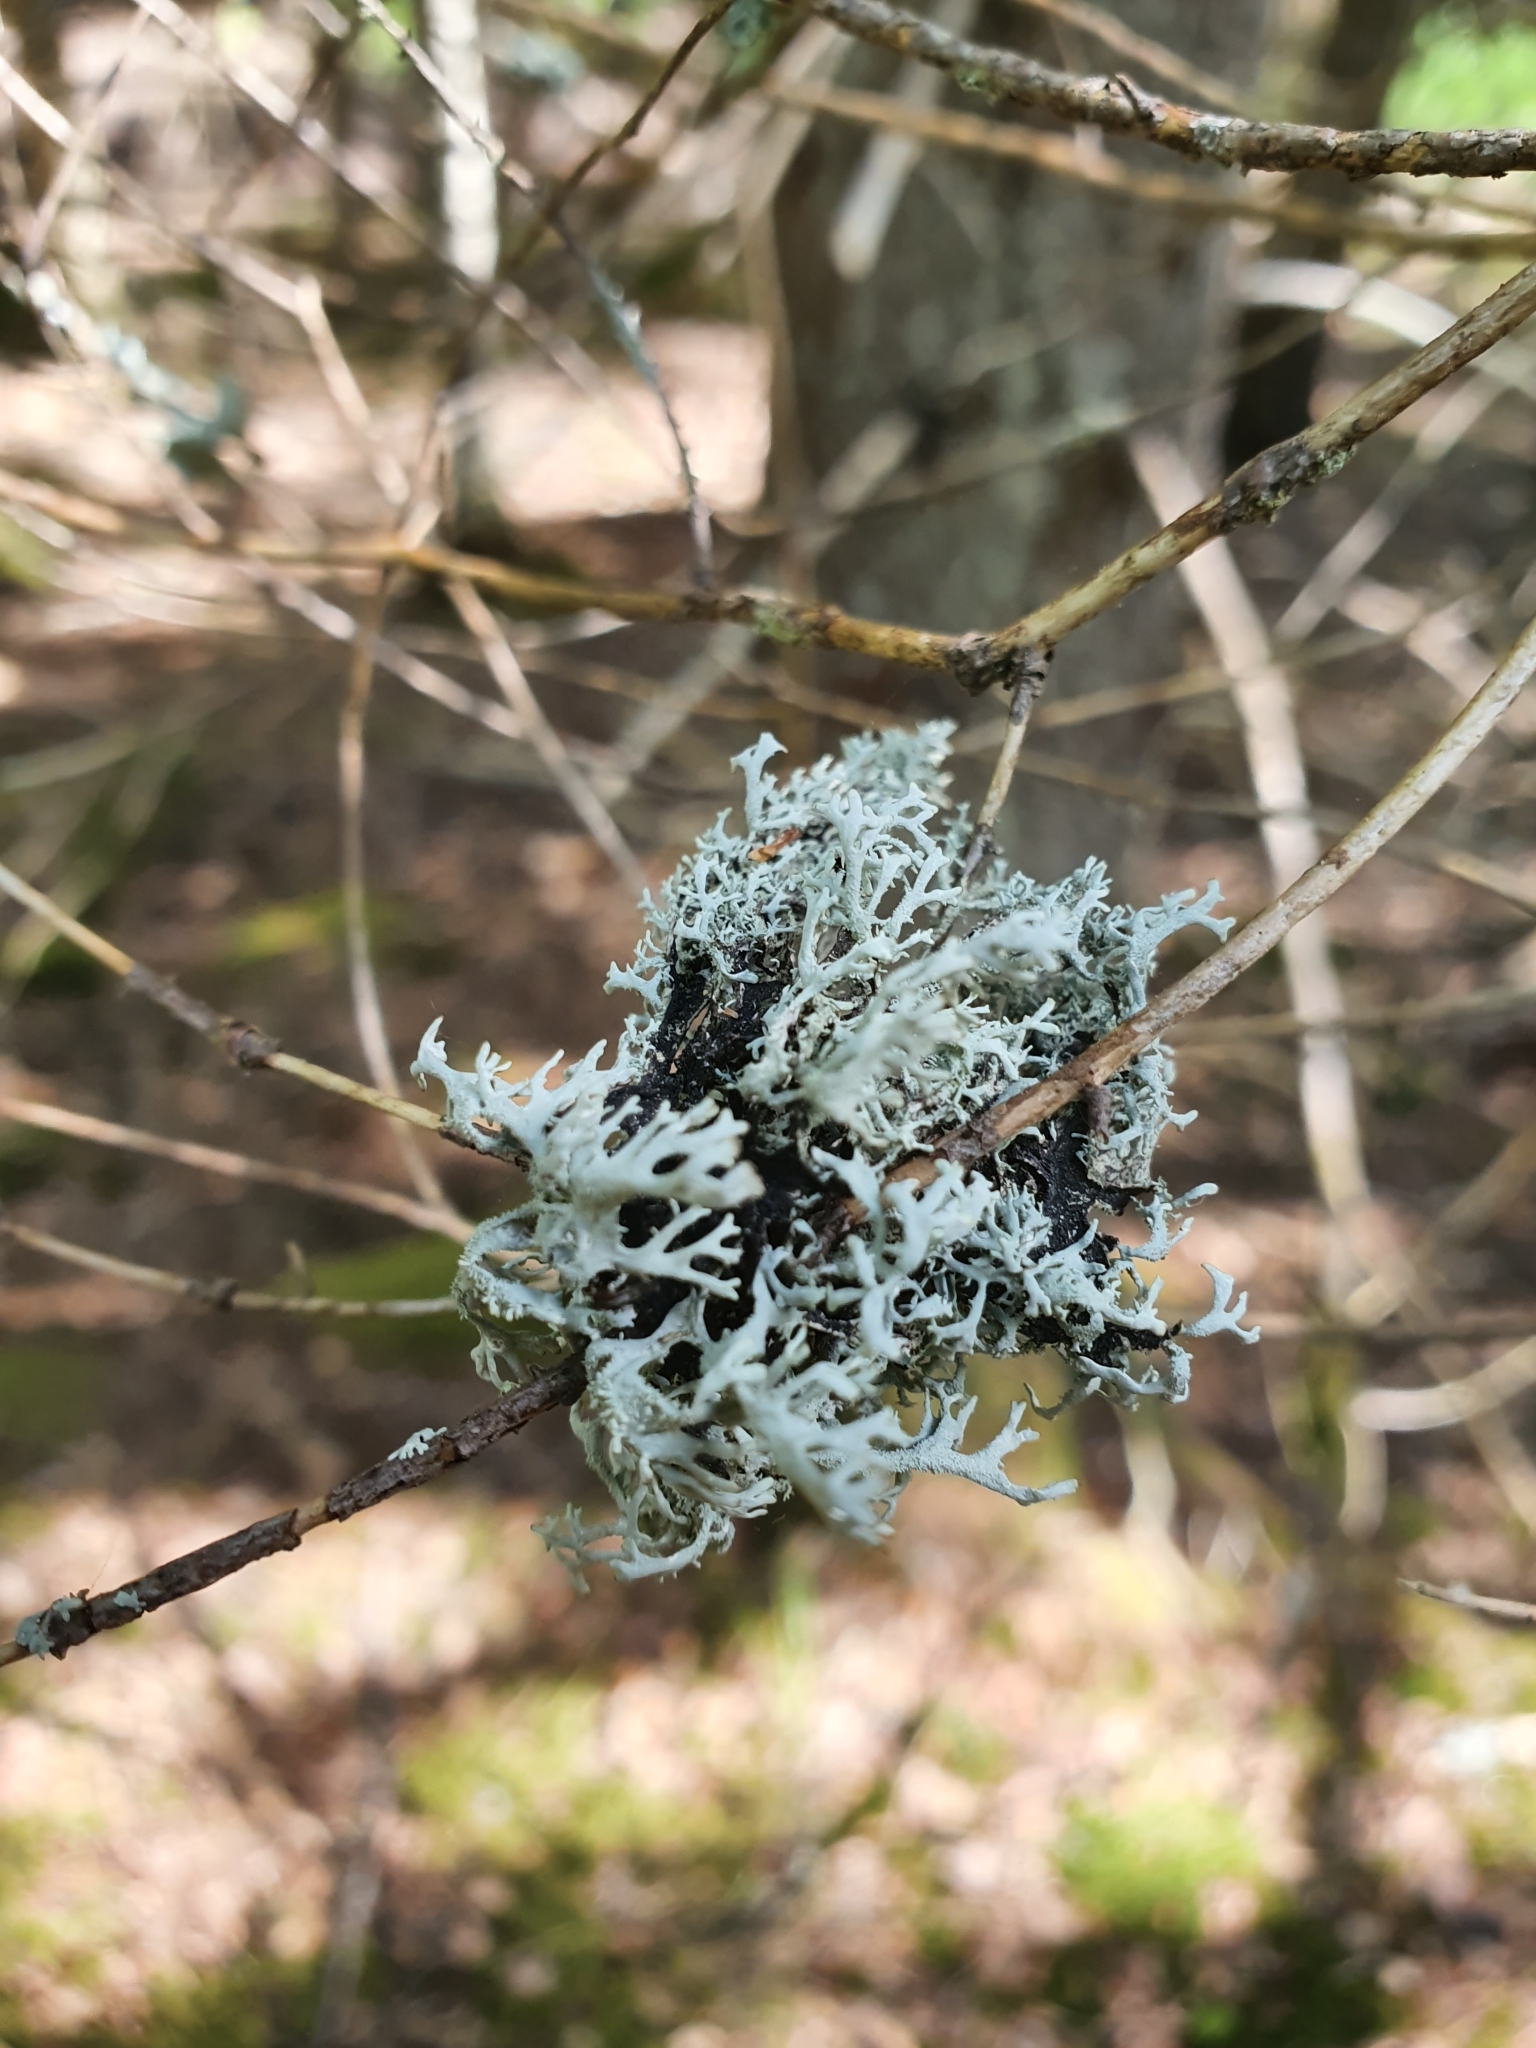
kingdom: Fungi
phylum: Ascomycota
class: Lecanoromycetes
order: Lecanorales
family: Parmeliaceae
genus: Pseudevernia
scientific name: Pseudevernia furfuracea
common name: Tree moss
